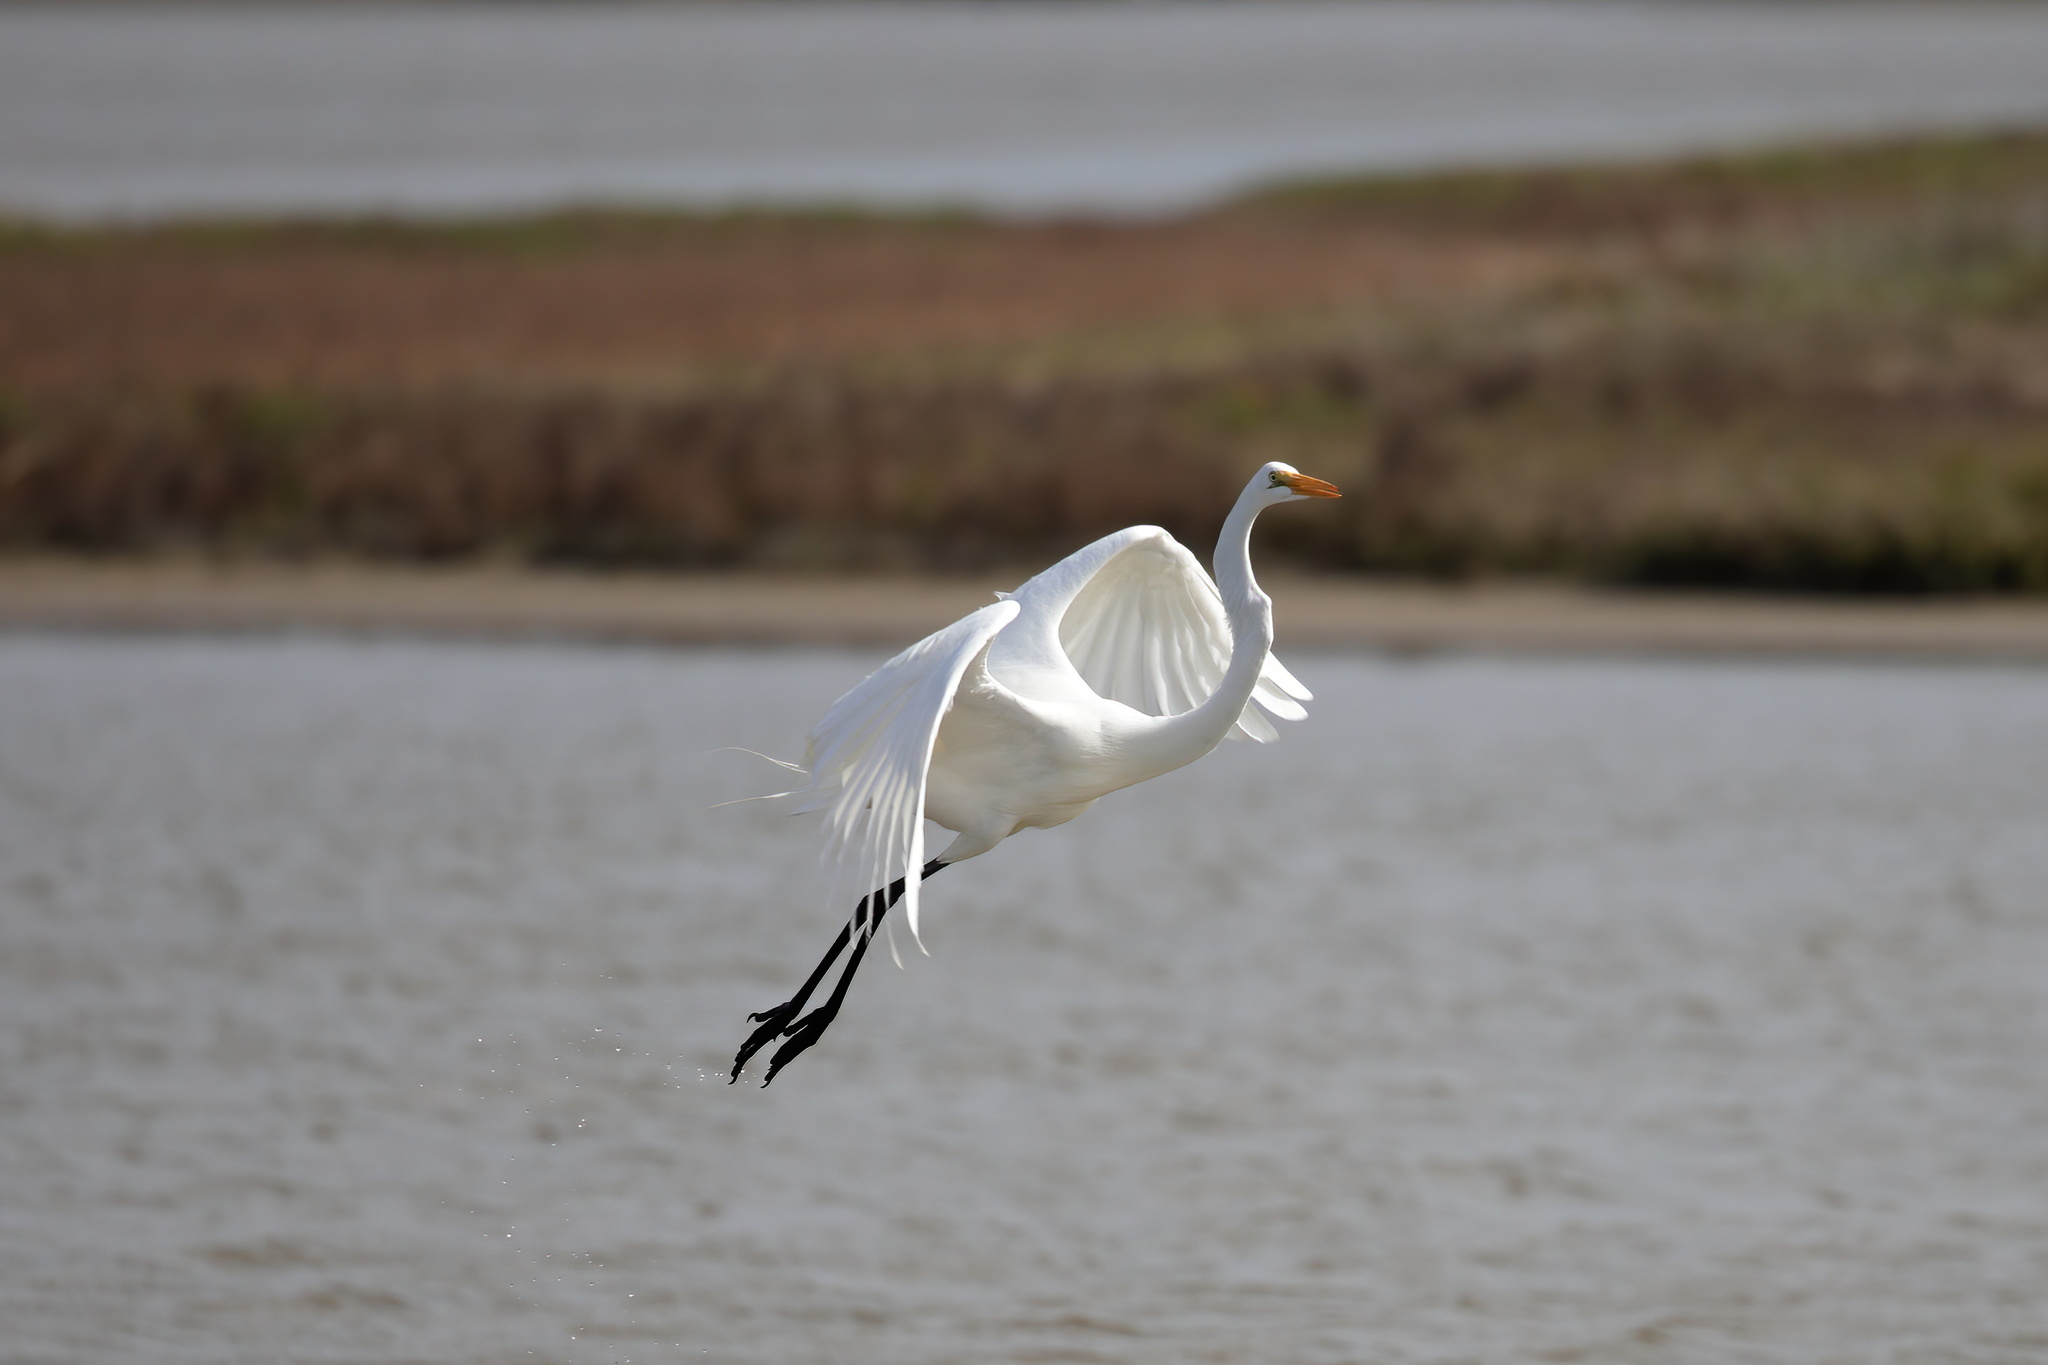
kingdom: Animalia
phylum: Chordata
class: Aves
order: Pelecaniformes
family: Ardeidae
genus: Ardea
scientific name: Ardea alba
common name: Great egret
